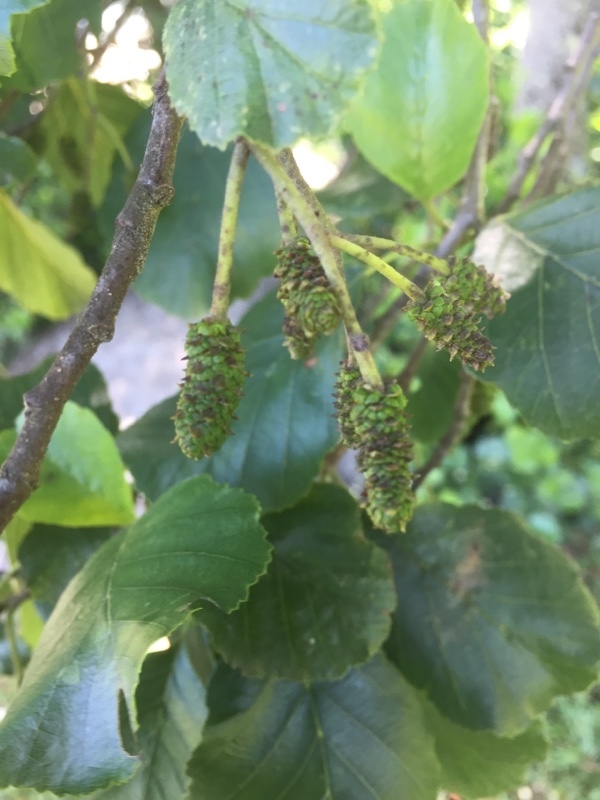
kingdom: Plantae
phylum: Tracheophyta
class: Magnoliopsida
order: Fagales
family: Betulaceae
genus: Alnus
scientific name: Alnus lusitanica
